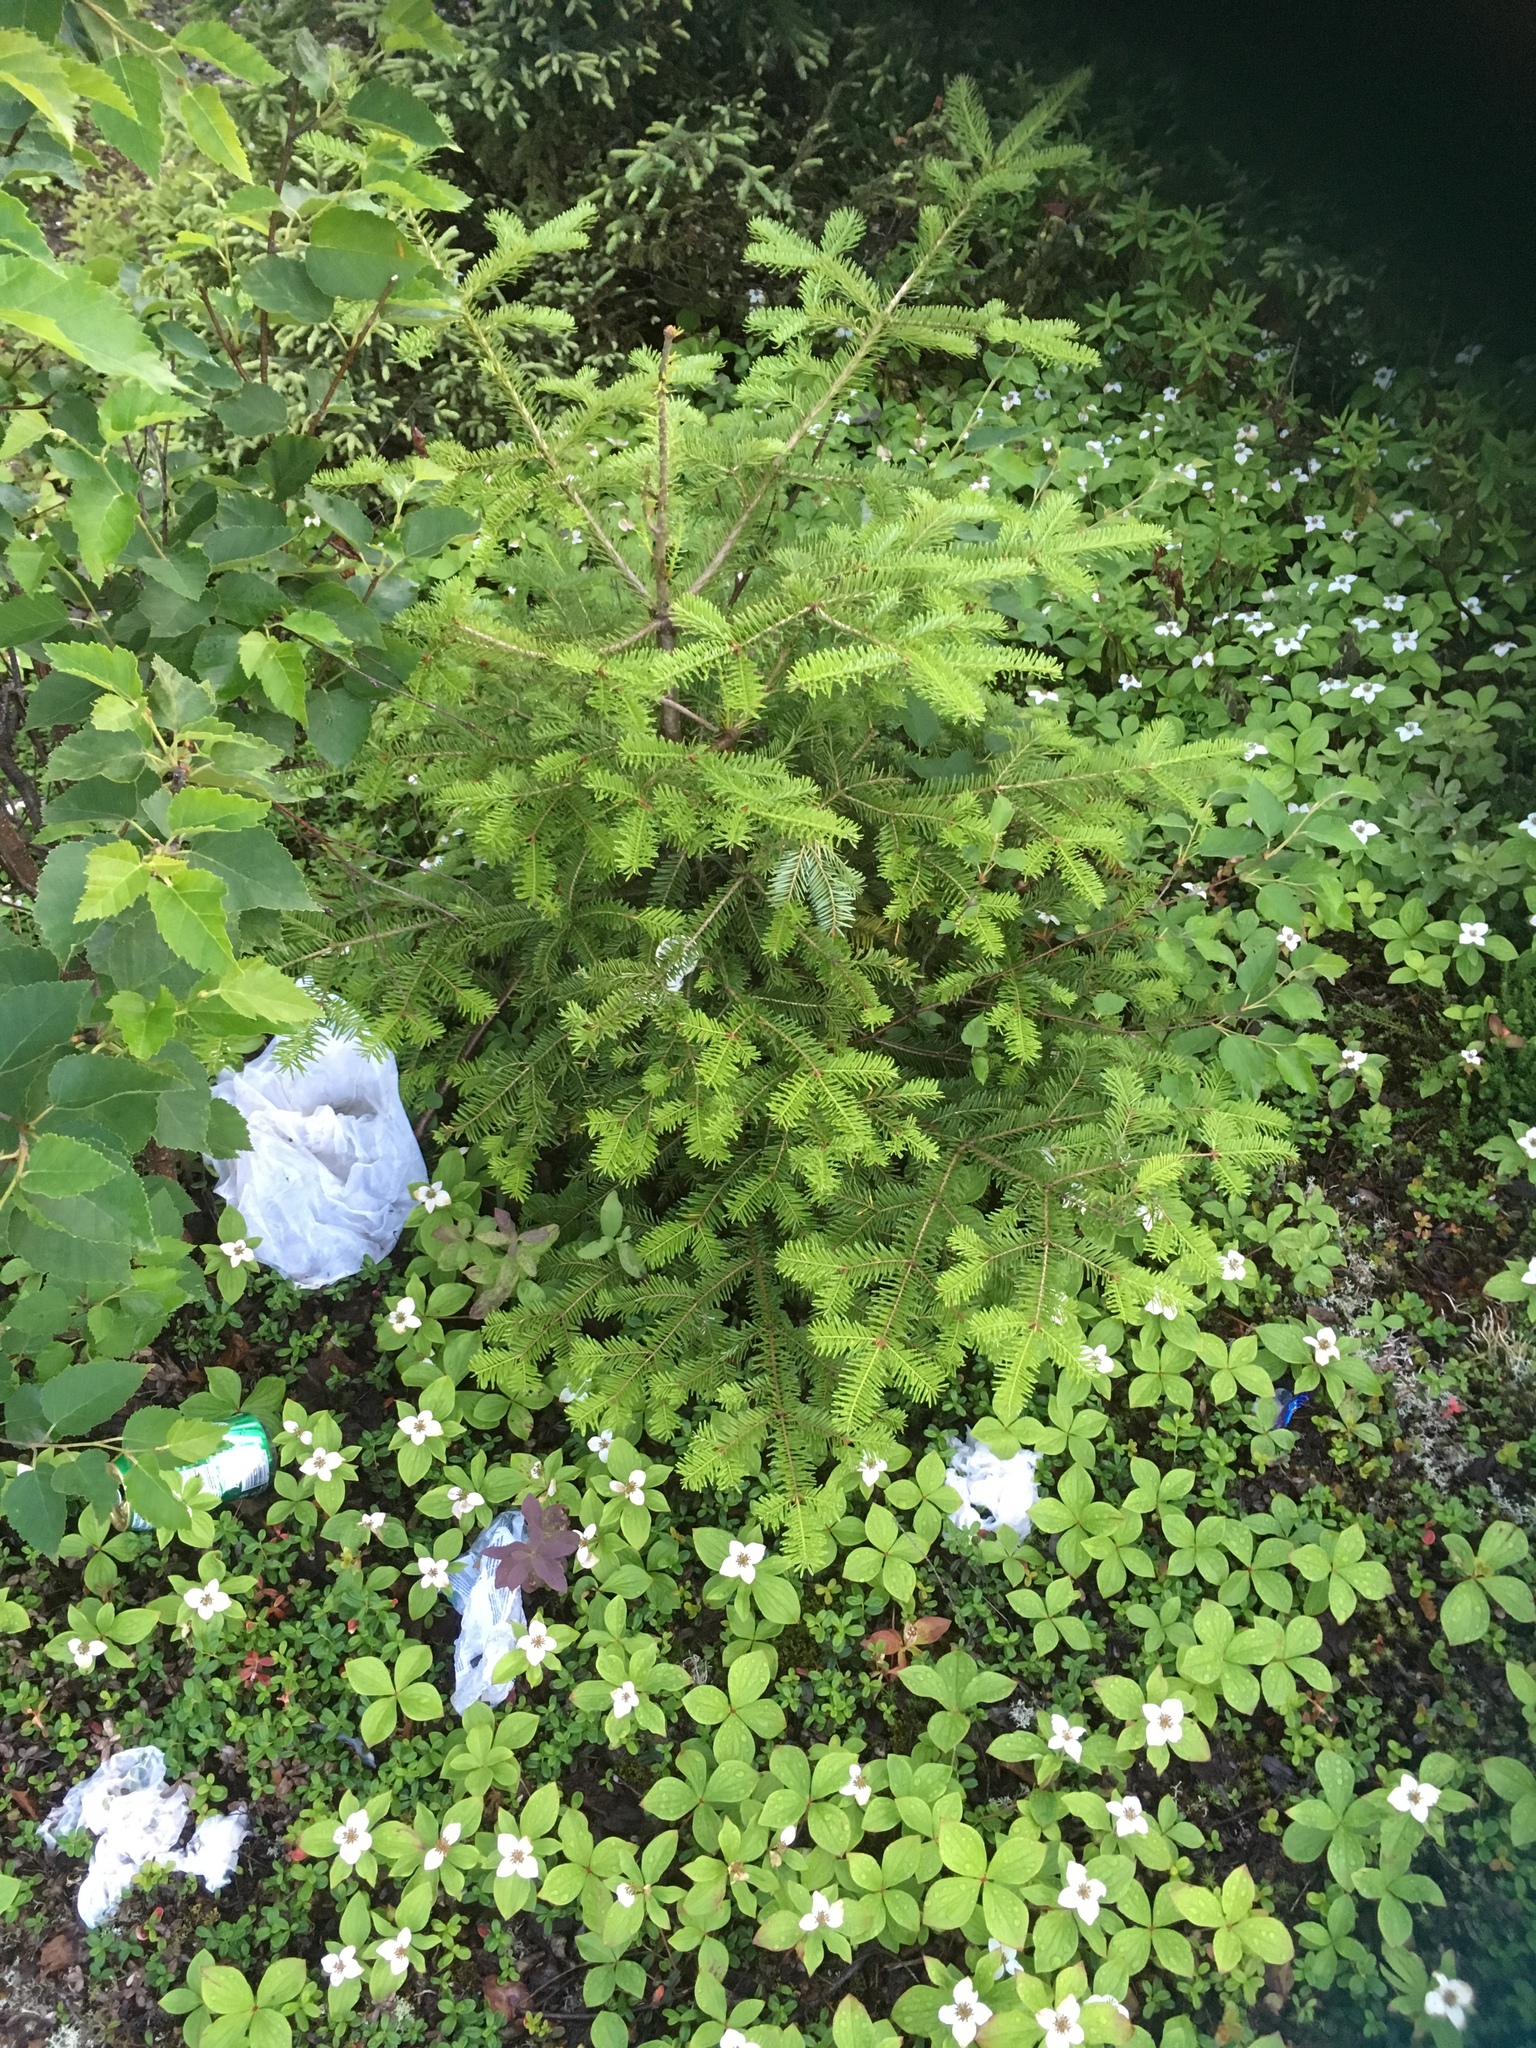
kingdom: Plantae
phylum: Tracheophyta
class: Pinopsida
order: Pinales
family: Pinaceae
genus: Abies
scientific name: Abies balsamea
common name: Balsam fir
